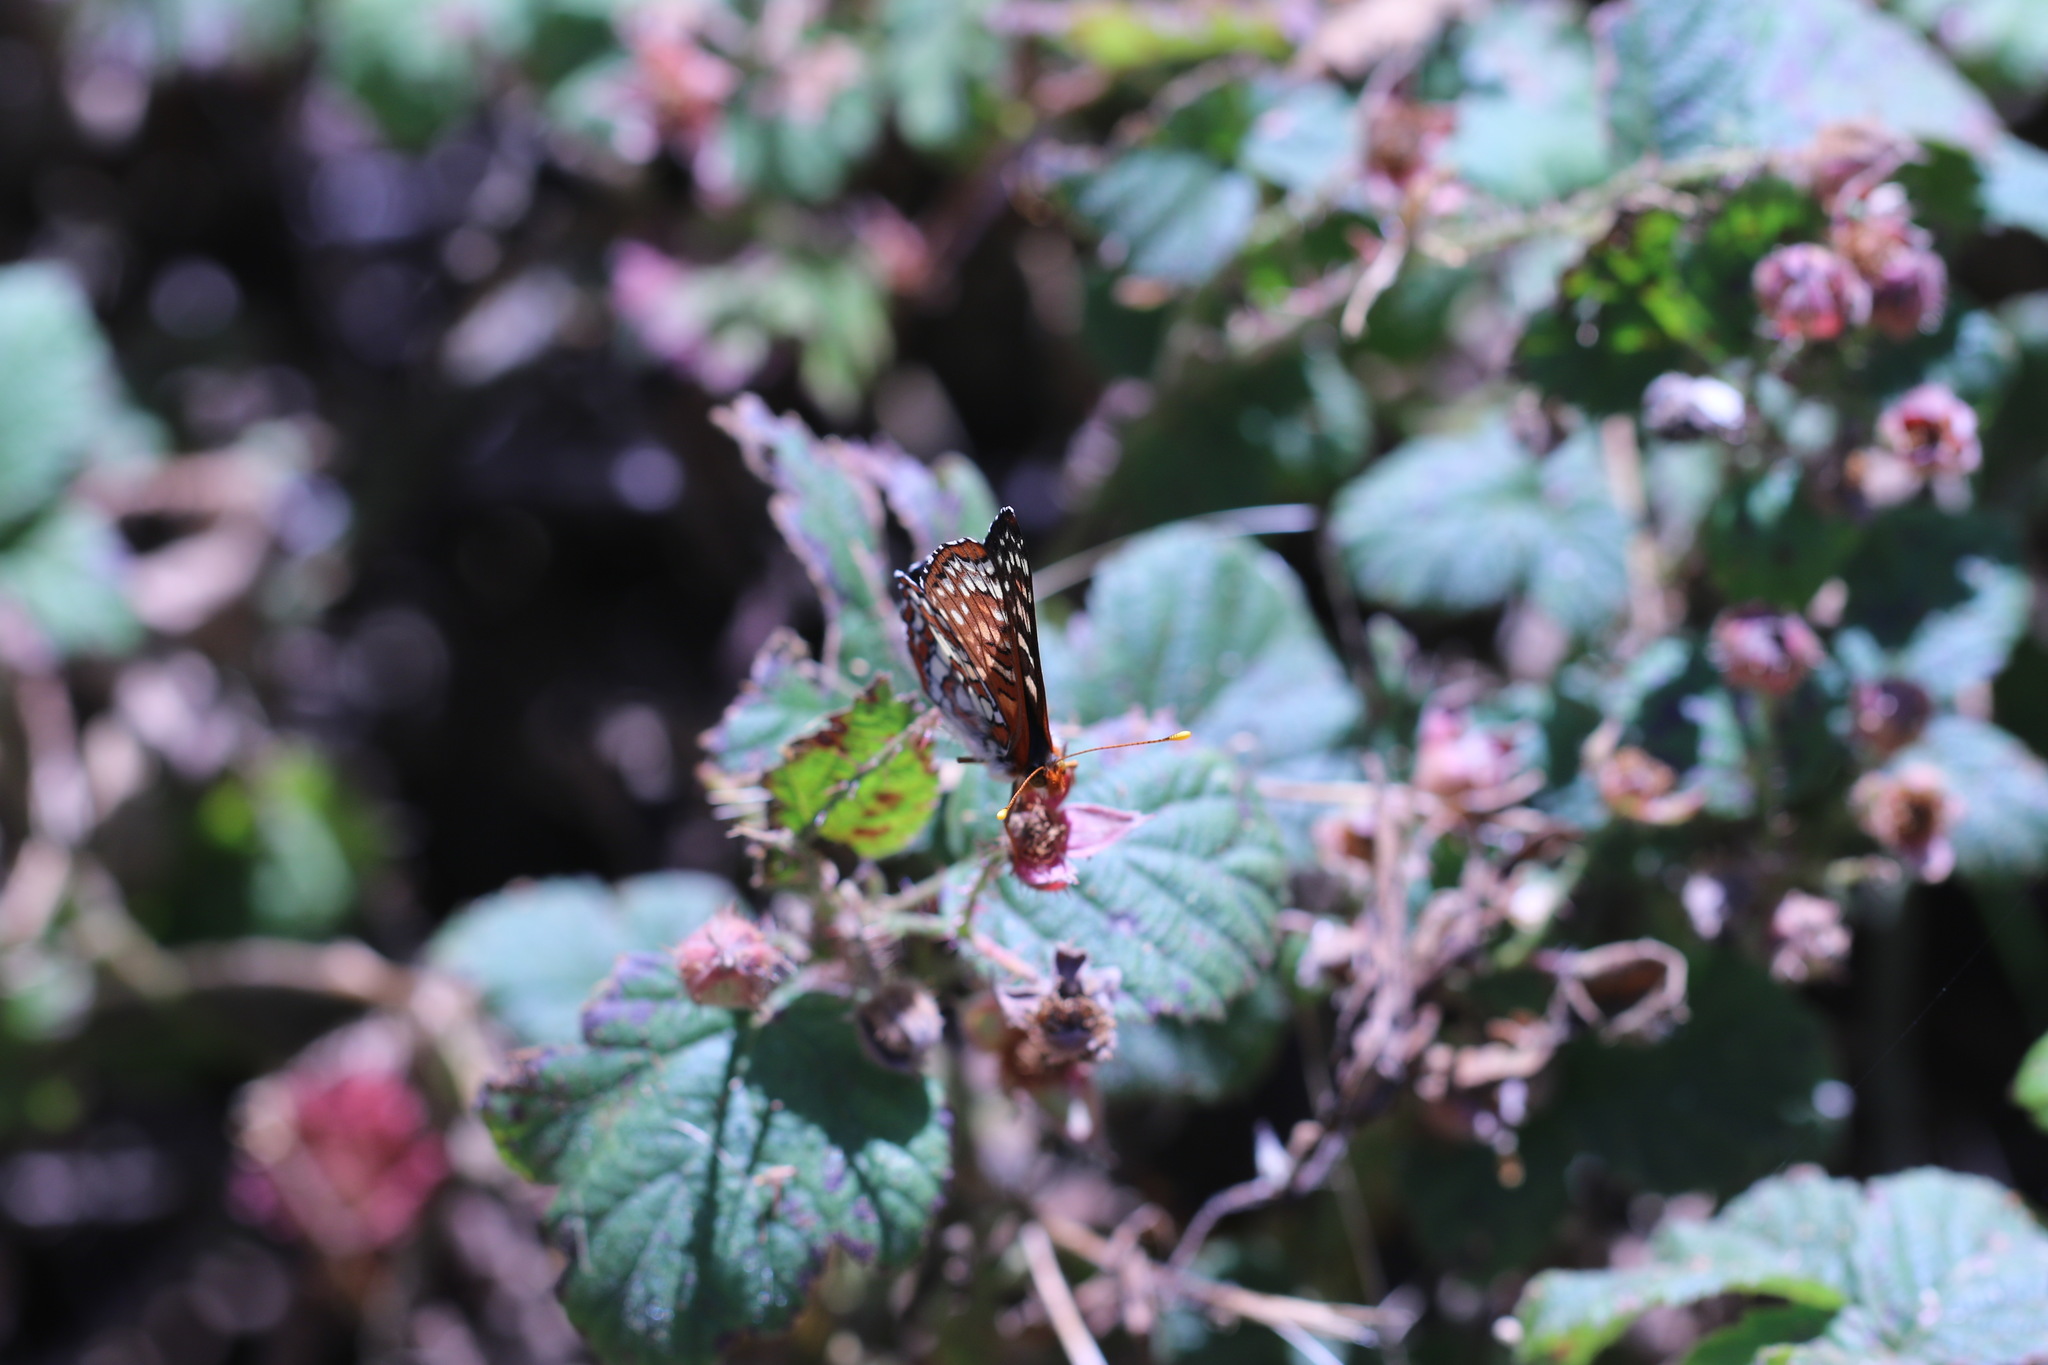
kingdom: Animalia
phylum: Arthropoda
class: Insecta
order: Lepidoptera
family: Nymphalidae
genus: Occidryas
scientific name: Occidryas chalcedona
